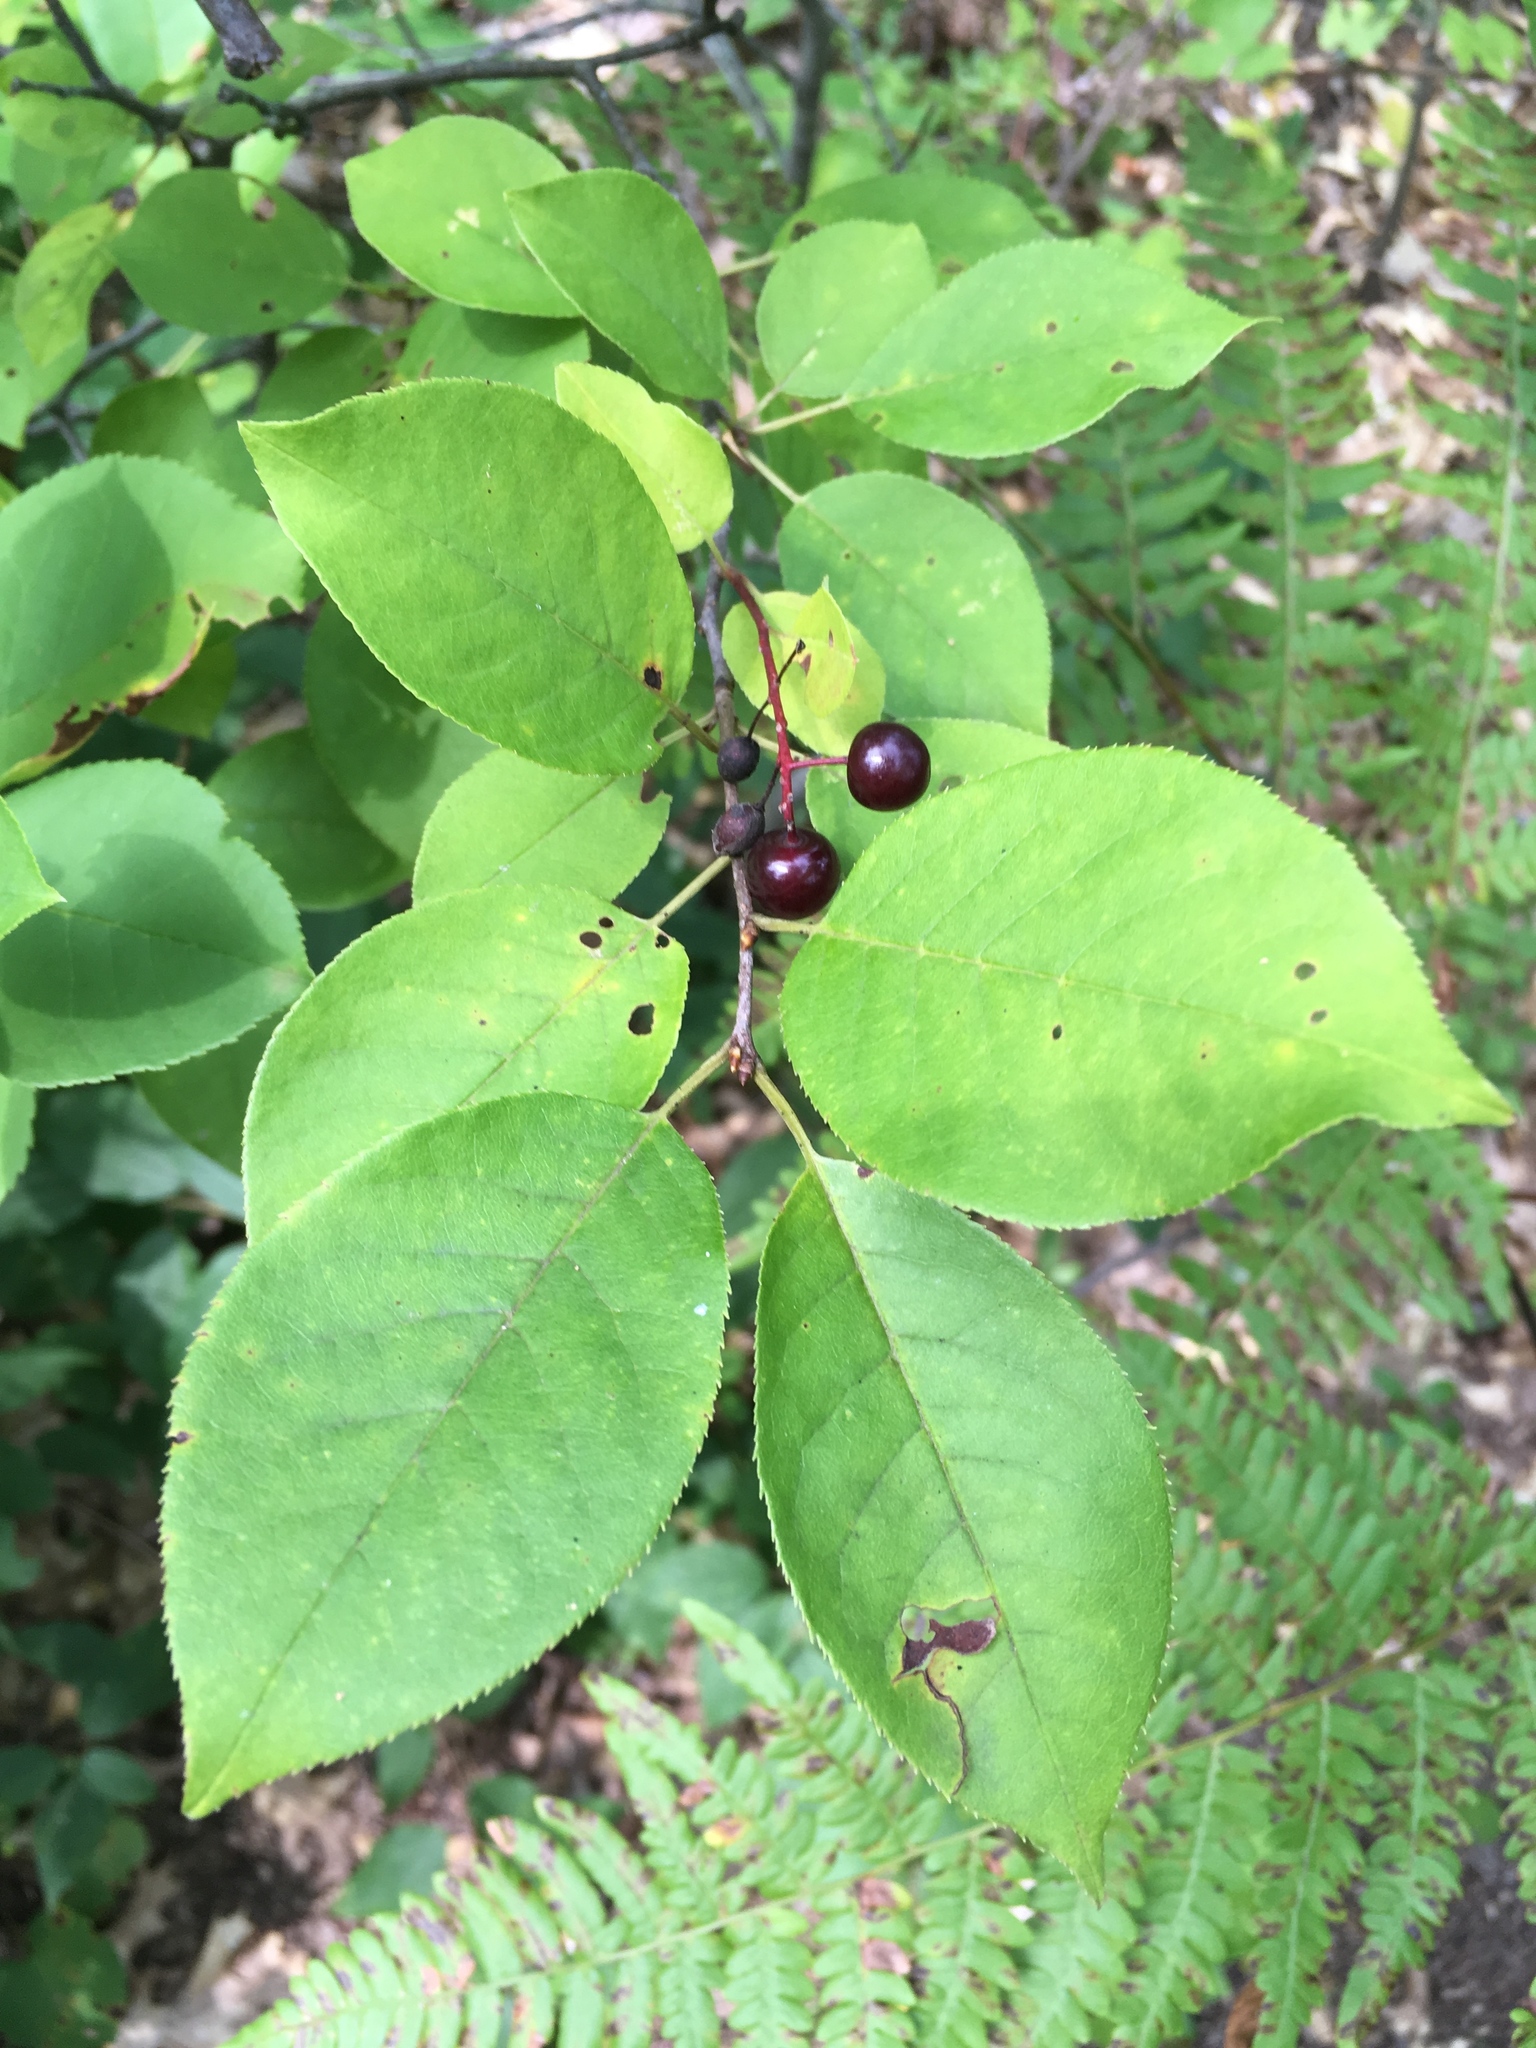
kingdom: Plantae
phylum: Tracheophyta
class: Magnoliopsida
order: Rosales
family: Rosaceae
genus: Prunus
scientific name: Prunus virginiana
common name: Chokecherry
